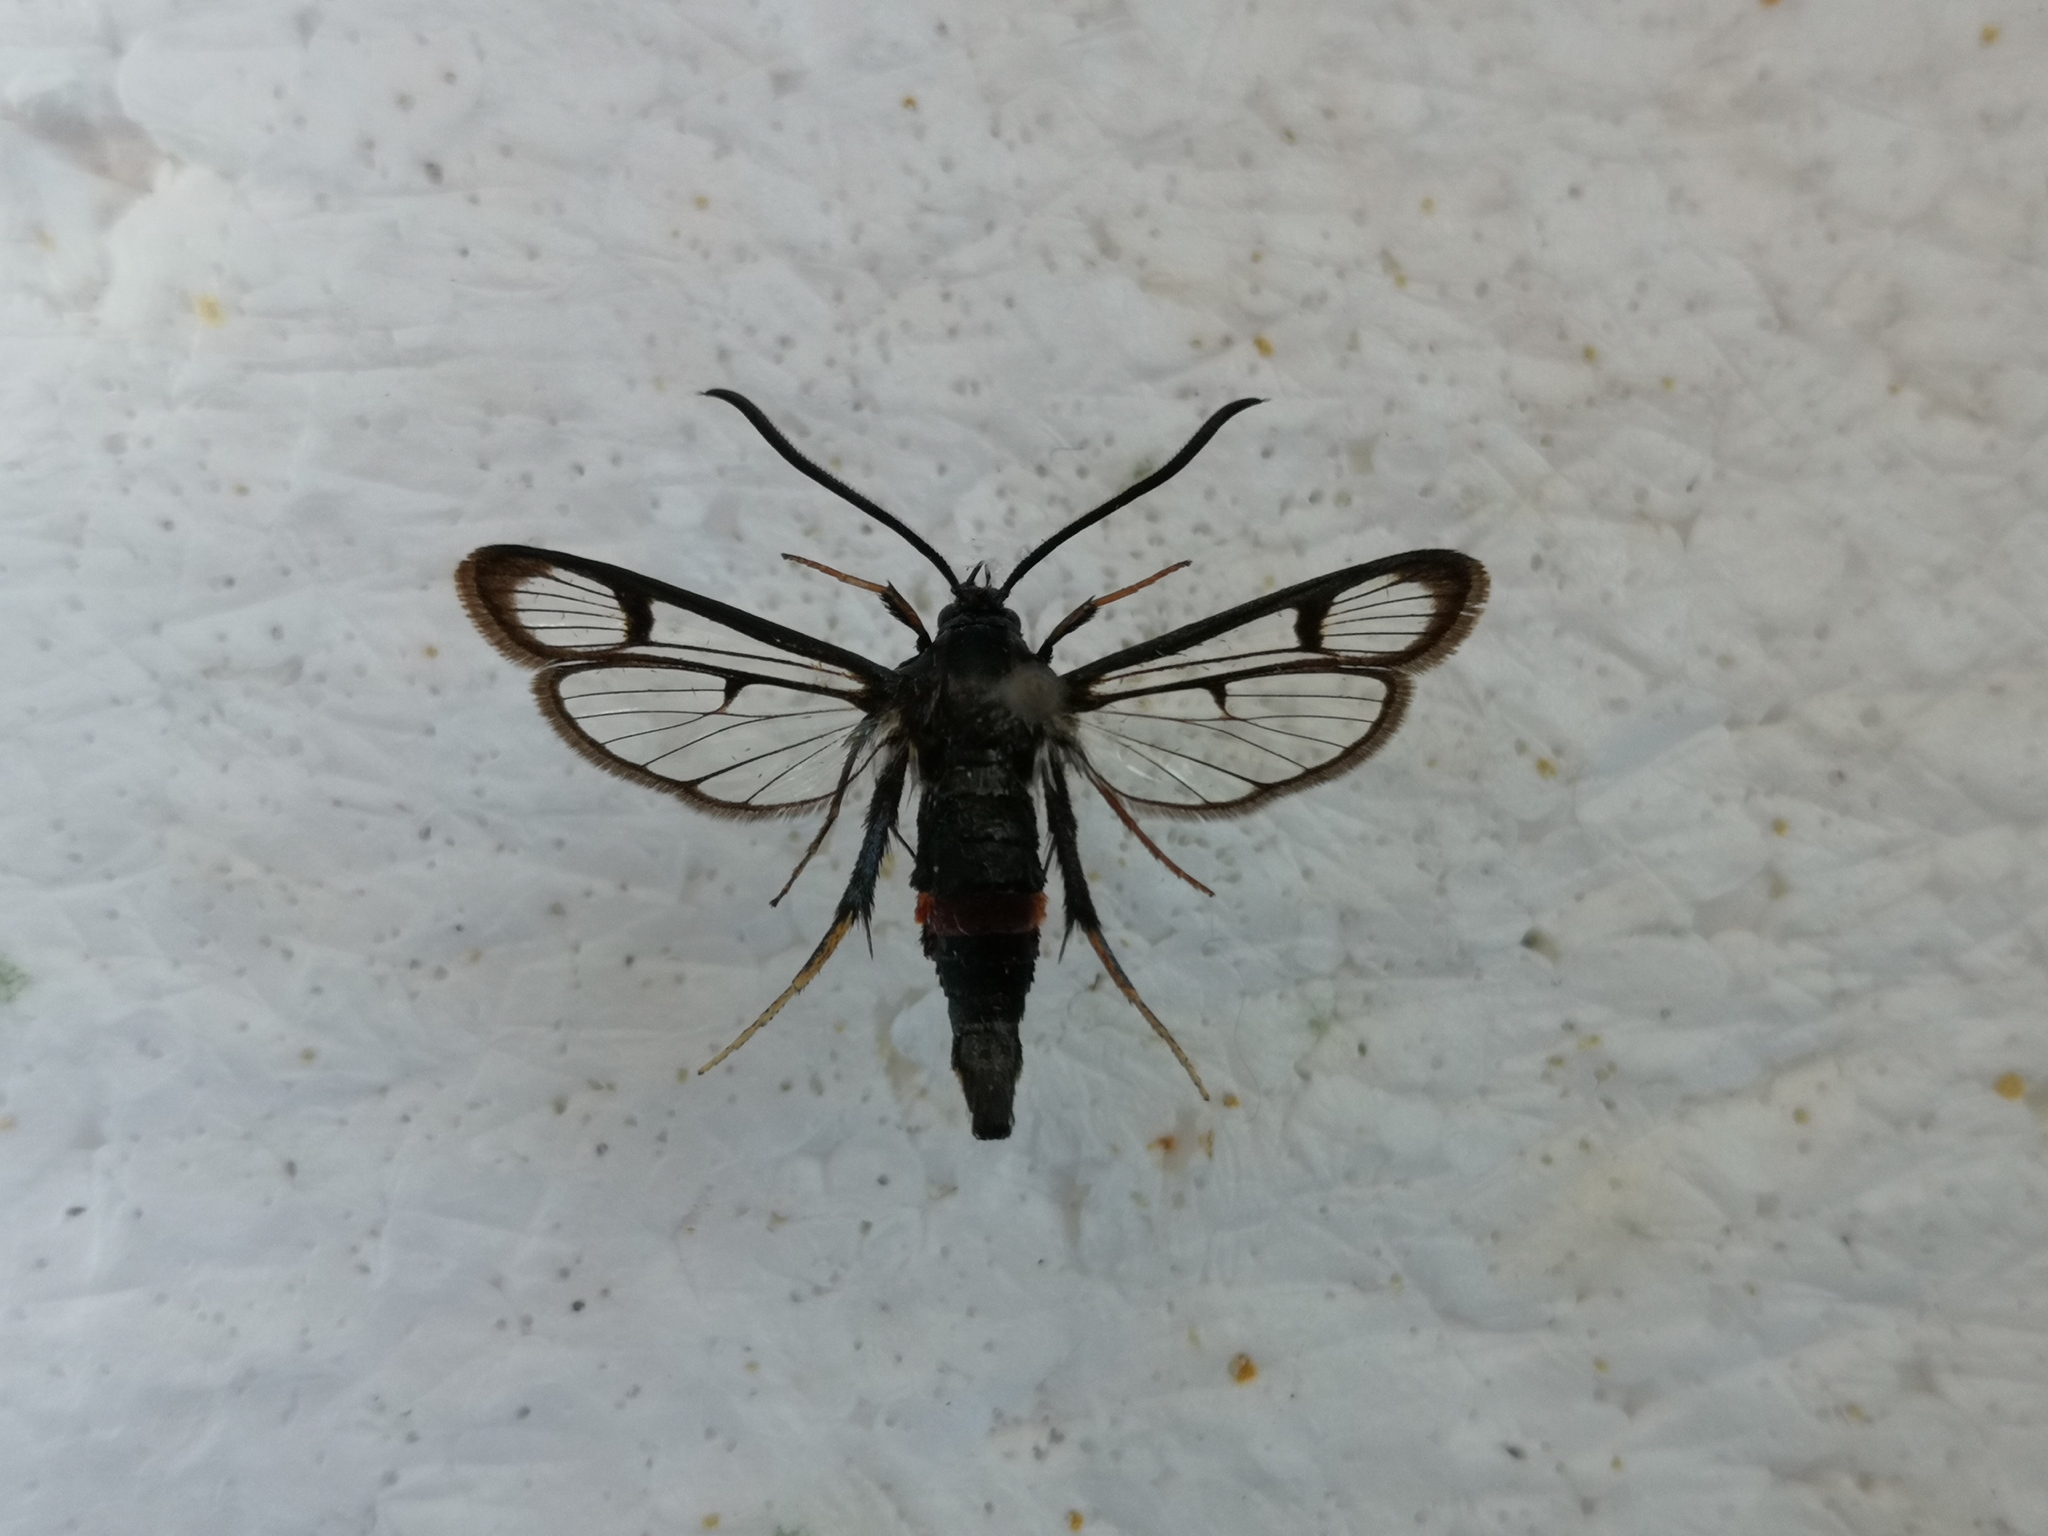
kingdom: Animalia
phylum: Arthropoda
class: Insecta
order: Lepidoptera
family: Sesiidae
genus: Synanthedon
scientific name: Synanthedon stomoxiformis
